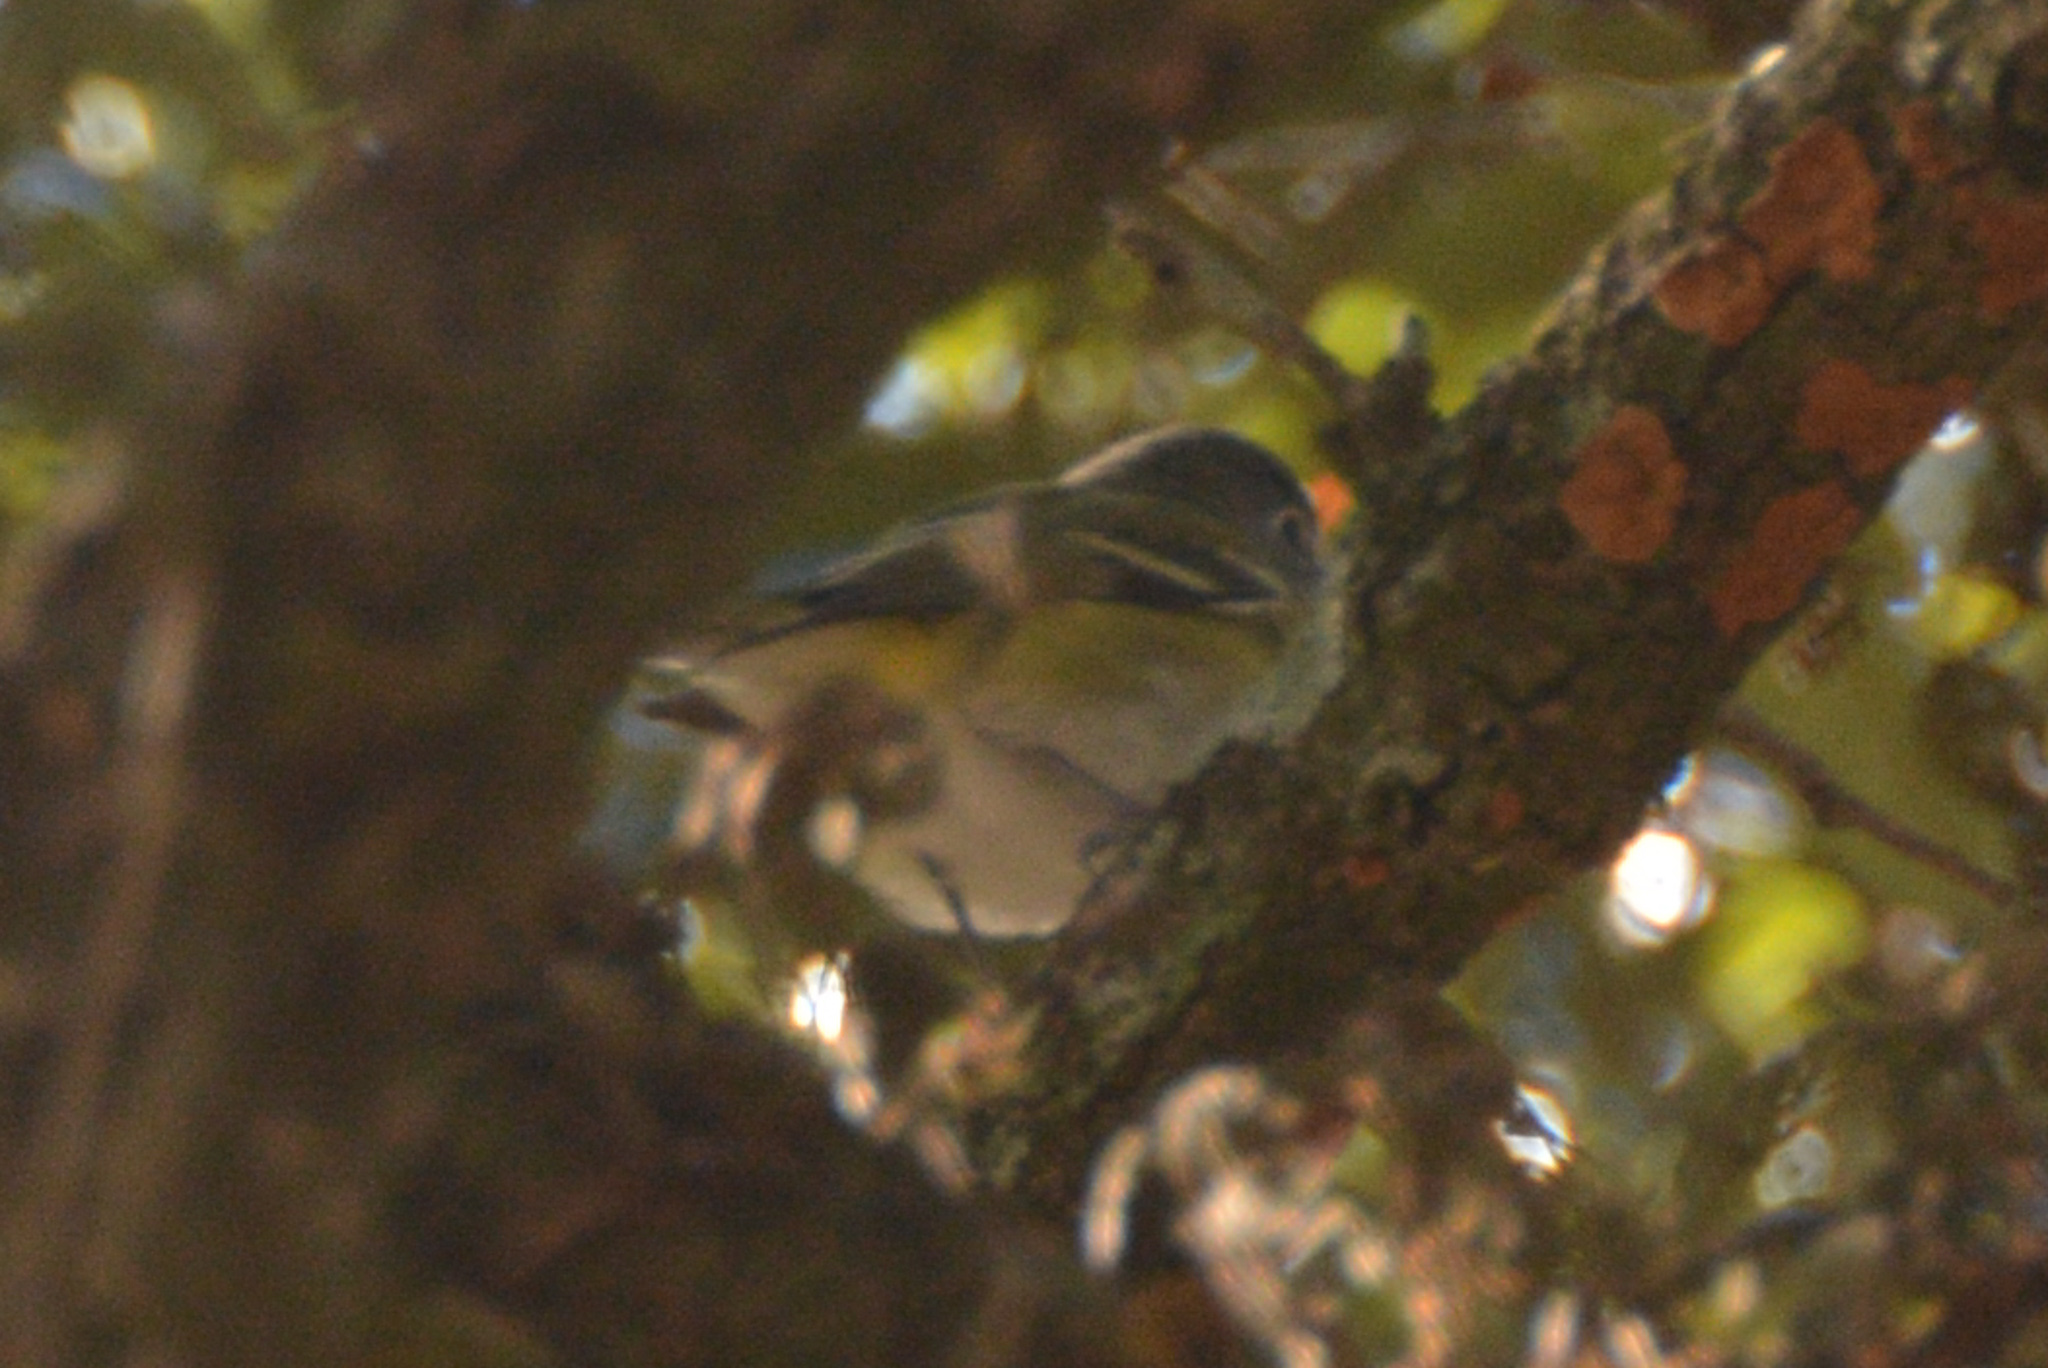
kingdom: Animalia
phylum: Chordata
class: Aves
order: Passeriformes
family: Vireonidae
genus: Vireo
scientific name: Vireo solitarius
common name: Blue-headed vireo
